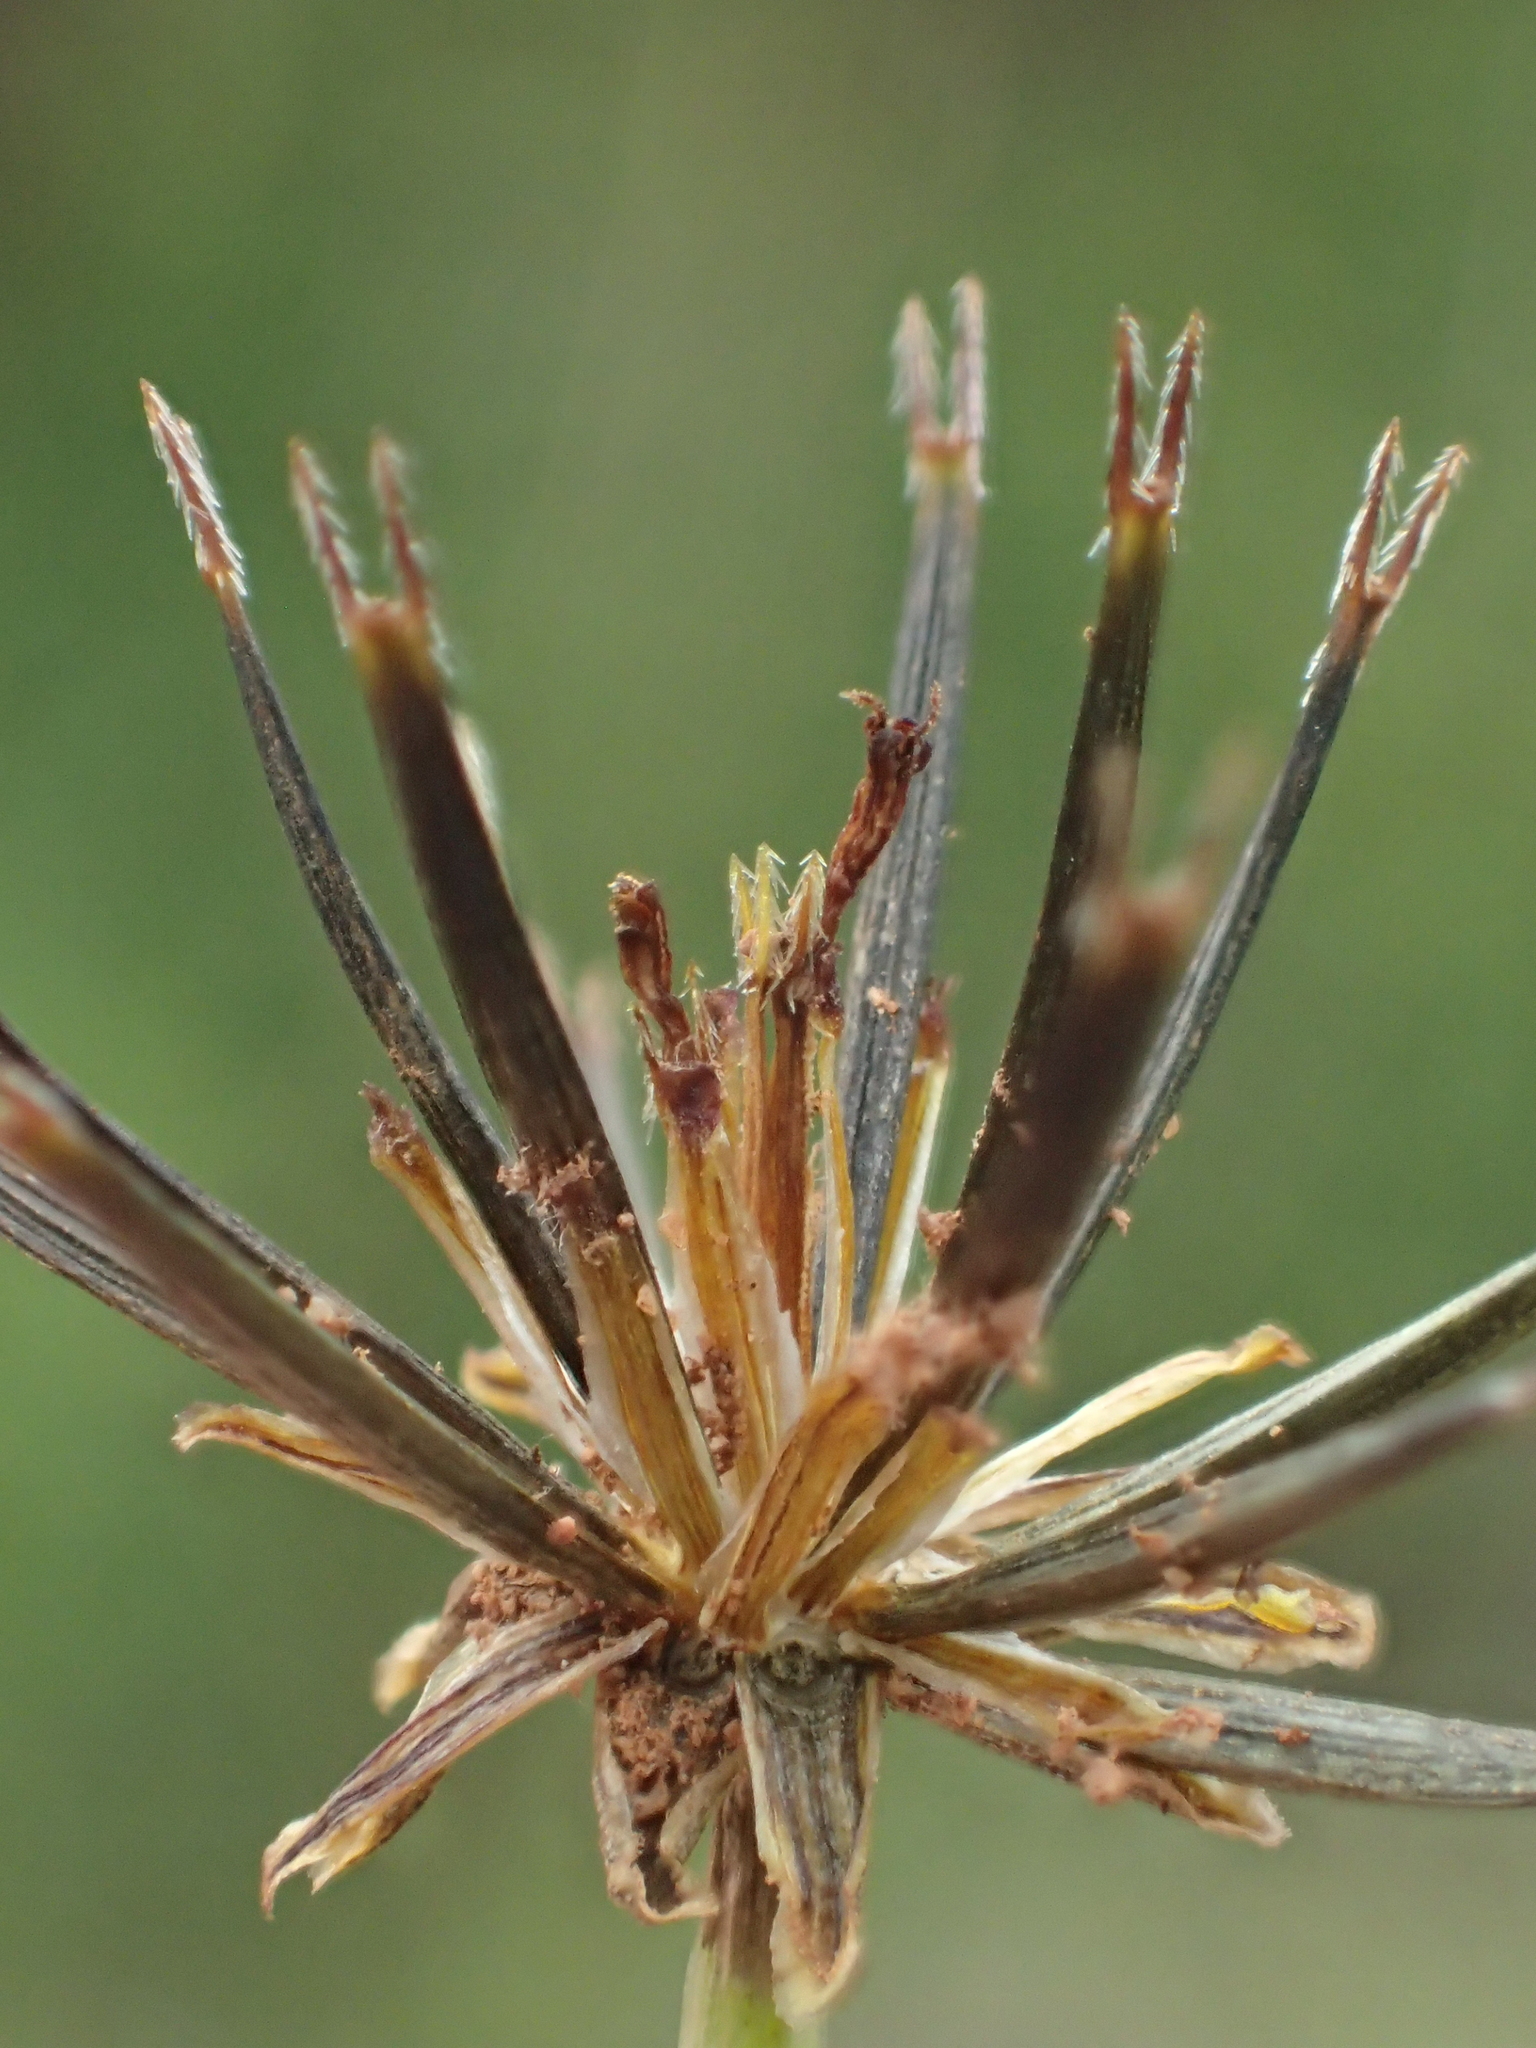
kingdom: Plantae
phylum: Tracheophyta
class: Magnoliopsida
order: Asterales
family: Asteraceae
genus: Glossocardia
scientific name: Glossocardia bidens
